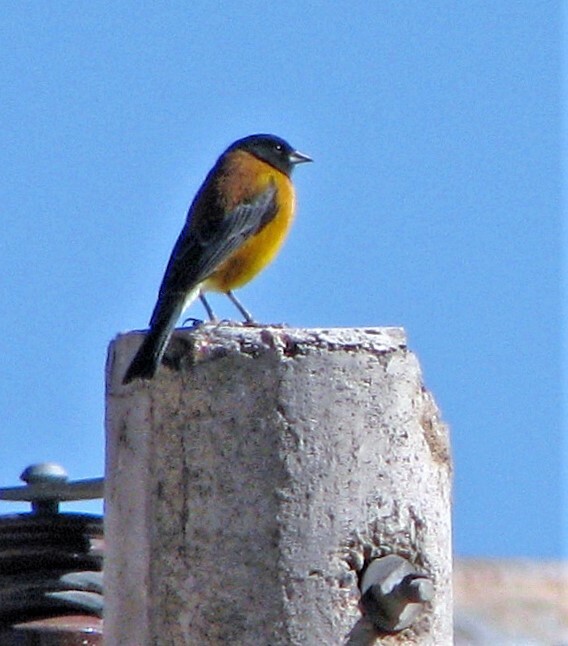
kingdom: Animalia
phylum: Chordata
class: Aves
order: Passeriformes
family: Thraupidae
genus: Phrygilus
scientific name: Phrygilus atriceps
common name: Black-hooded sierra finch
